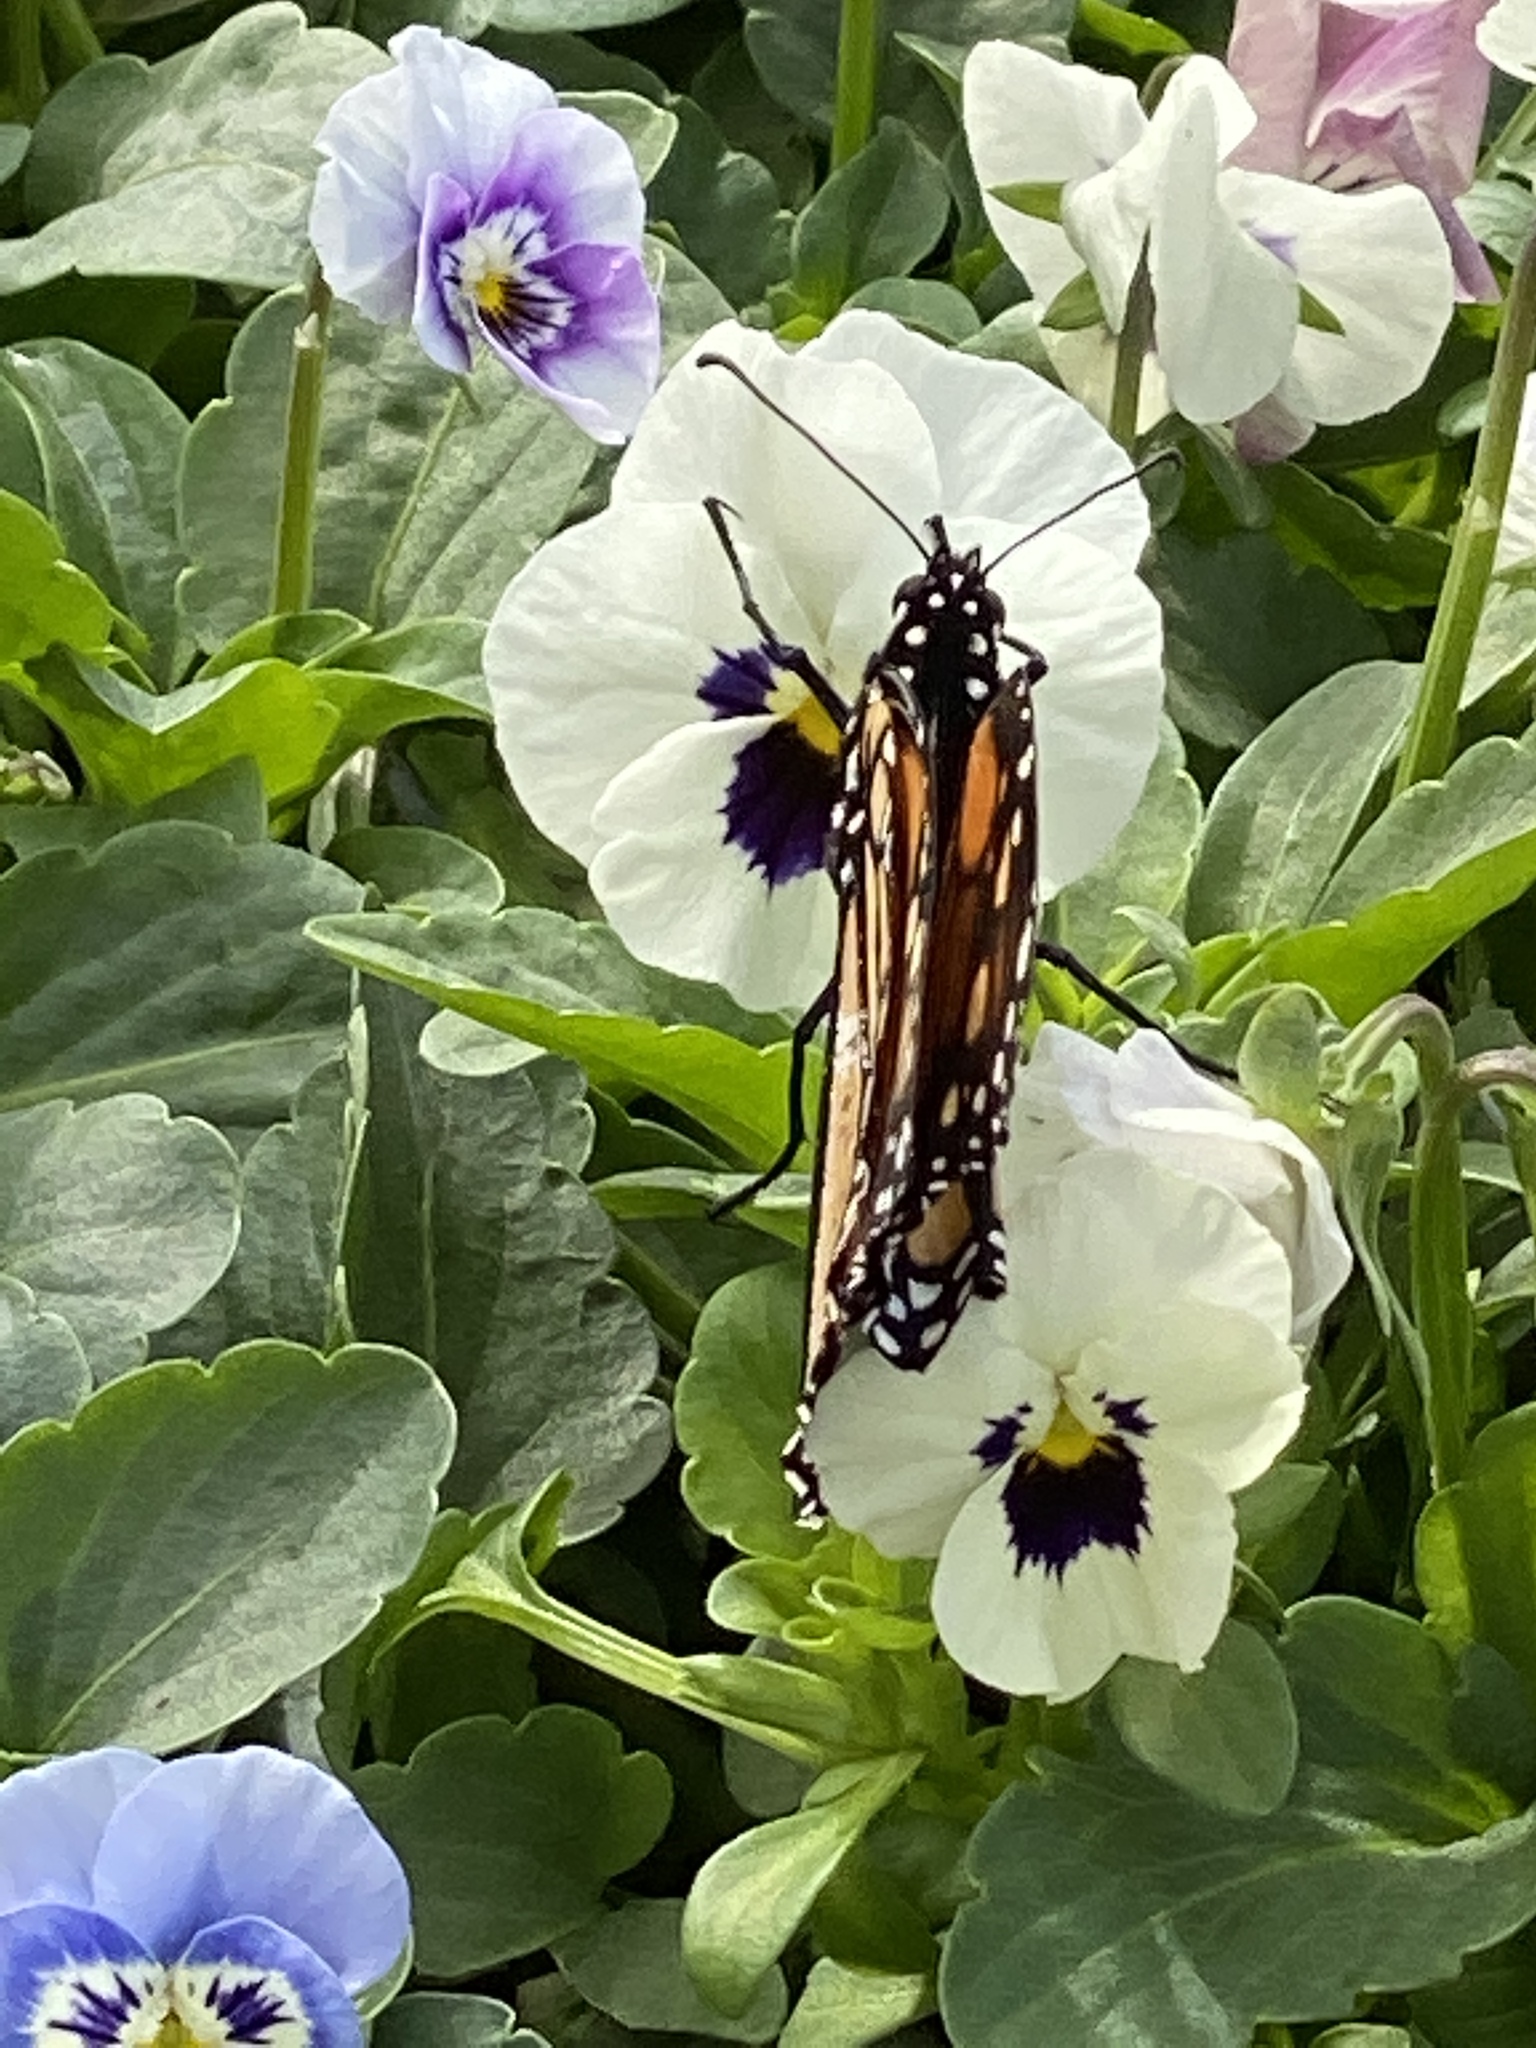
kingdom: Animalia
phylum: Arthropoda
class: Insecta
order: Lepidoptera
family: Nymphalidae
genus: Danaus
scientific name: Danaus plexippus
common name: Monarch
